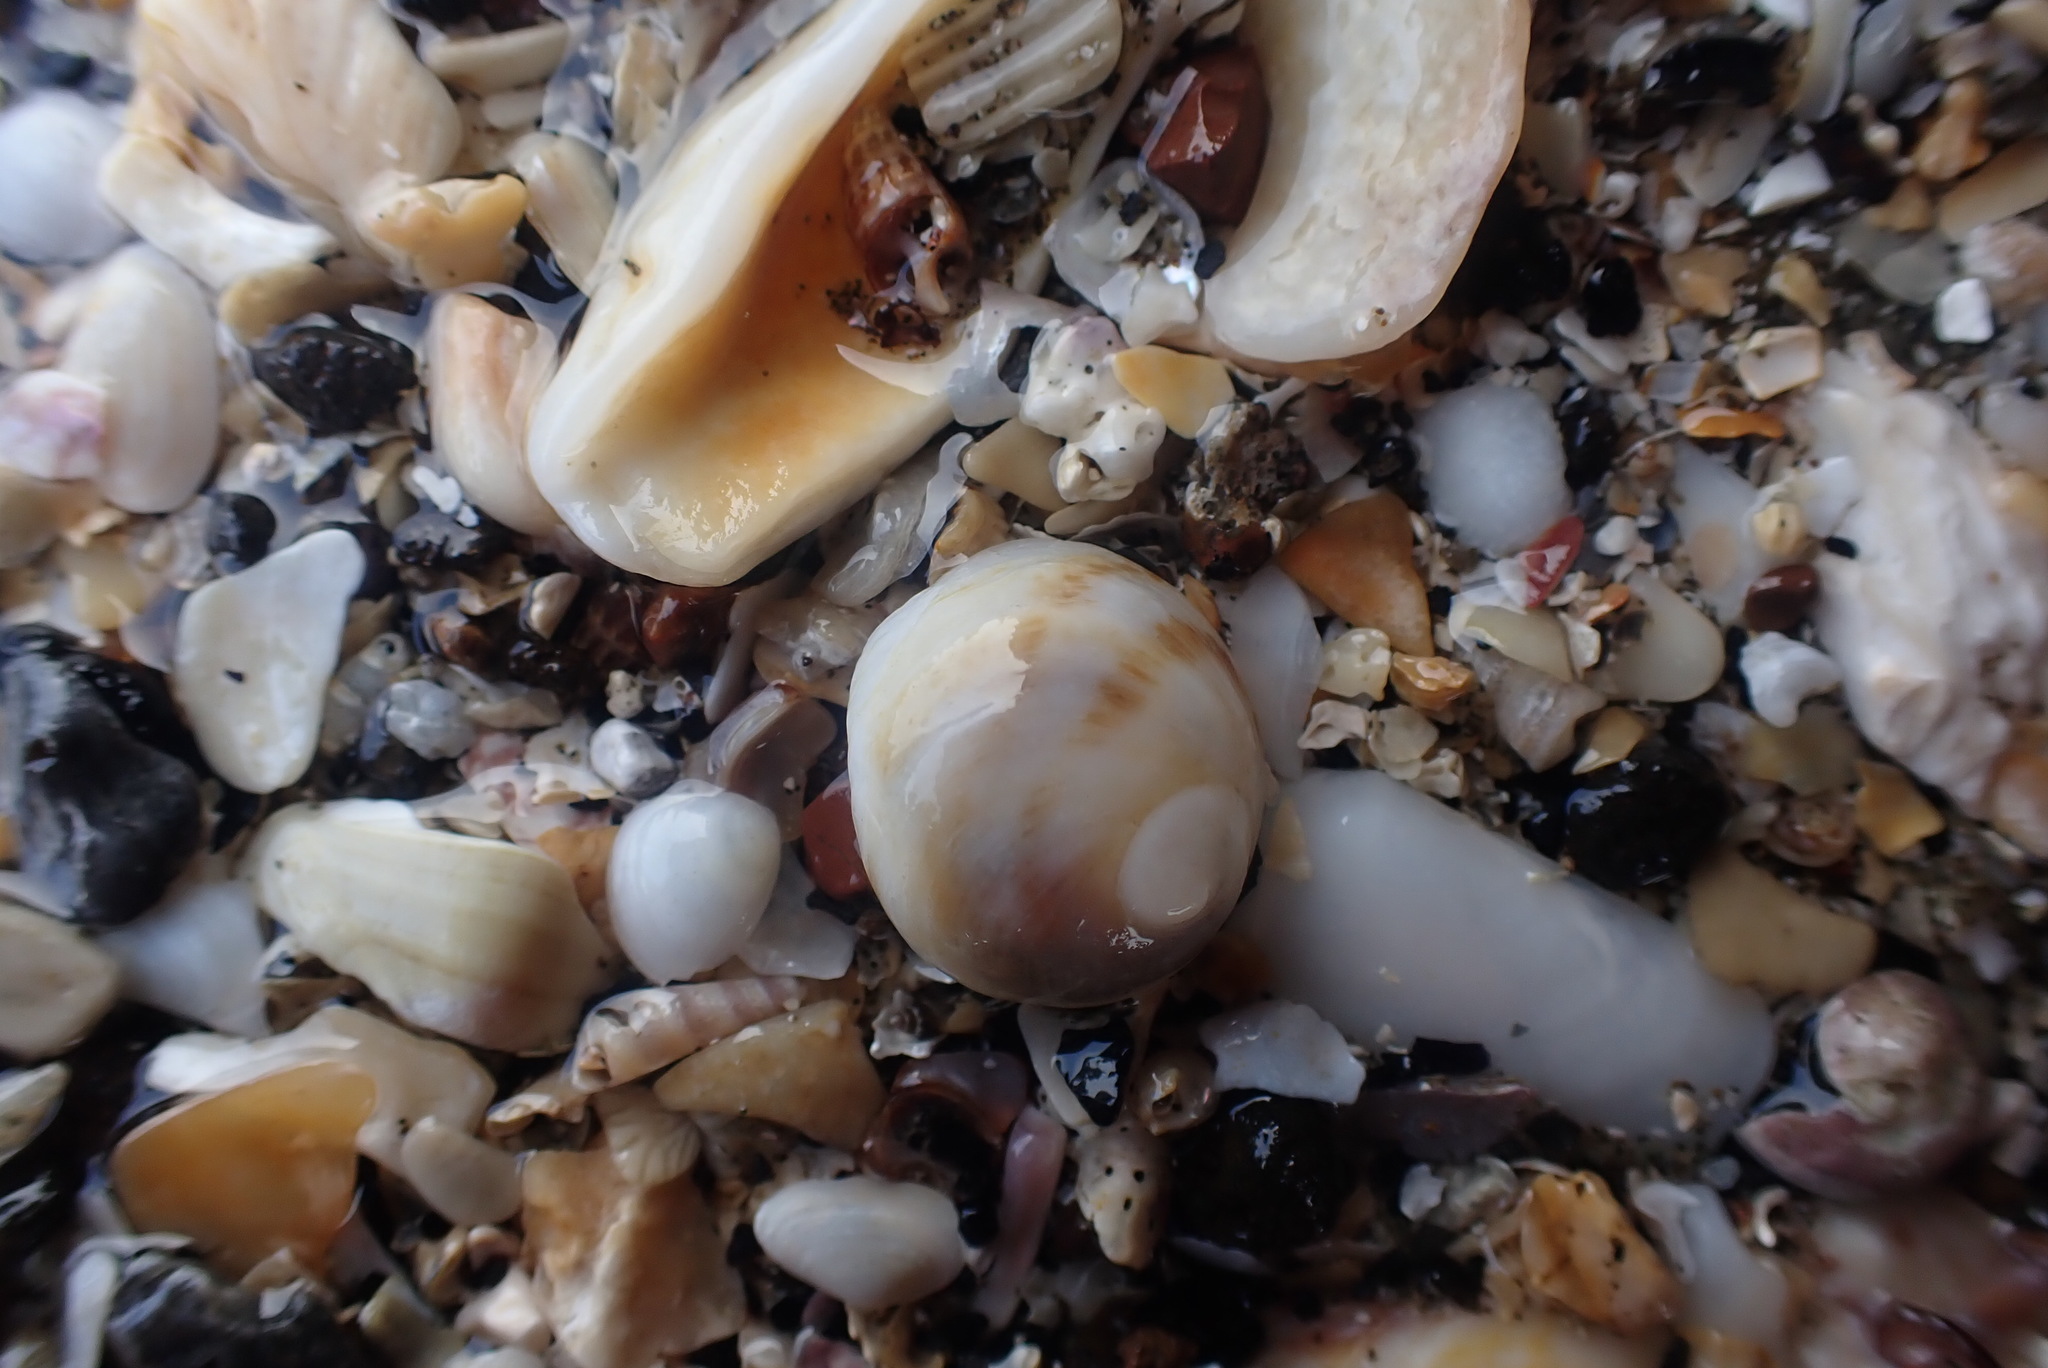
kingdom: Animalia
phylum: Mollusca
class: Gastropoda
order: Littorinimorpha
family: Calyptraeidae
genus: Sigapatella
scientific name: Sigapatella novaezelandiae
